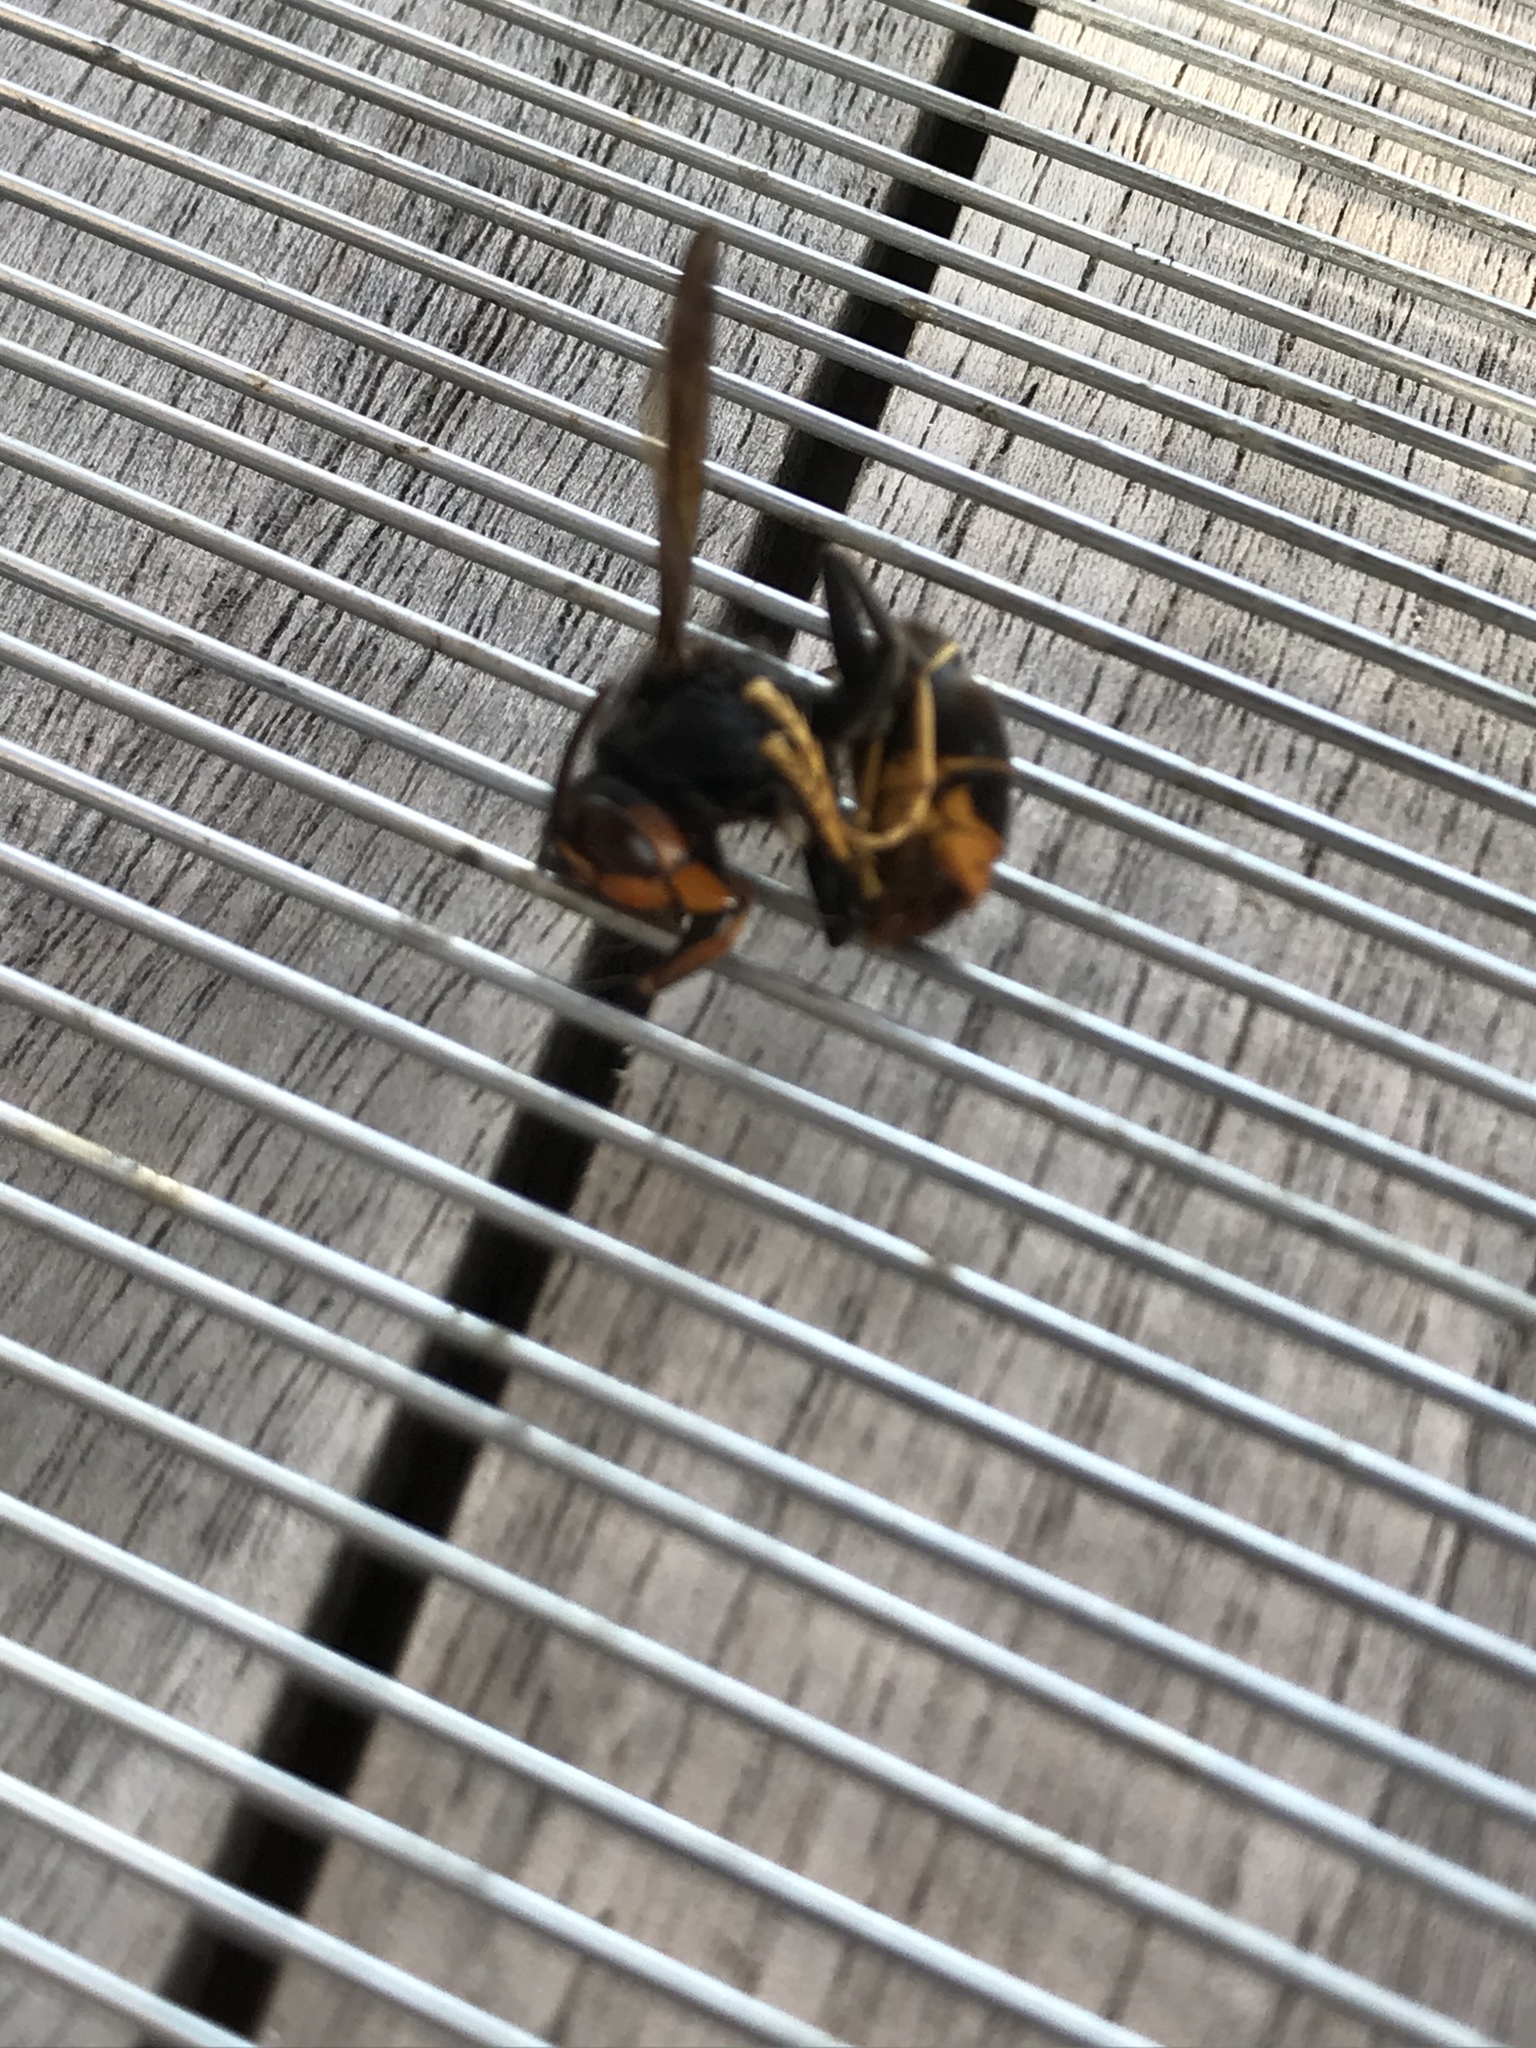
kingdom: Animalia
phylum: Arthropoda
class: Insecta
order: Hymenoptera
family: Vespidae
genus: Vespa
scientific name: Vespa velutina
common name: Asian hornet
